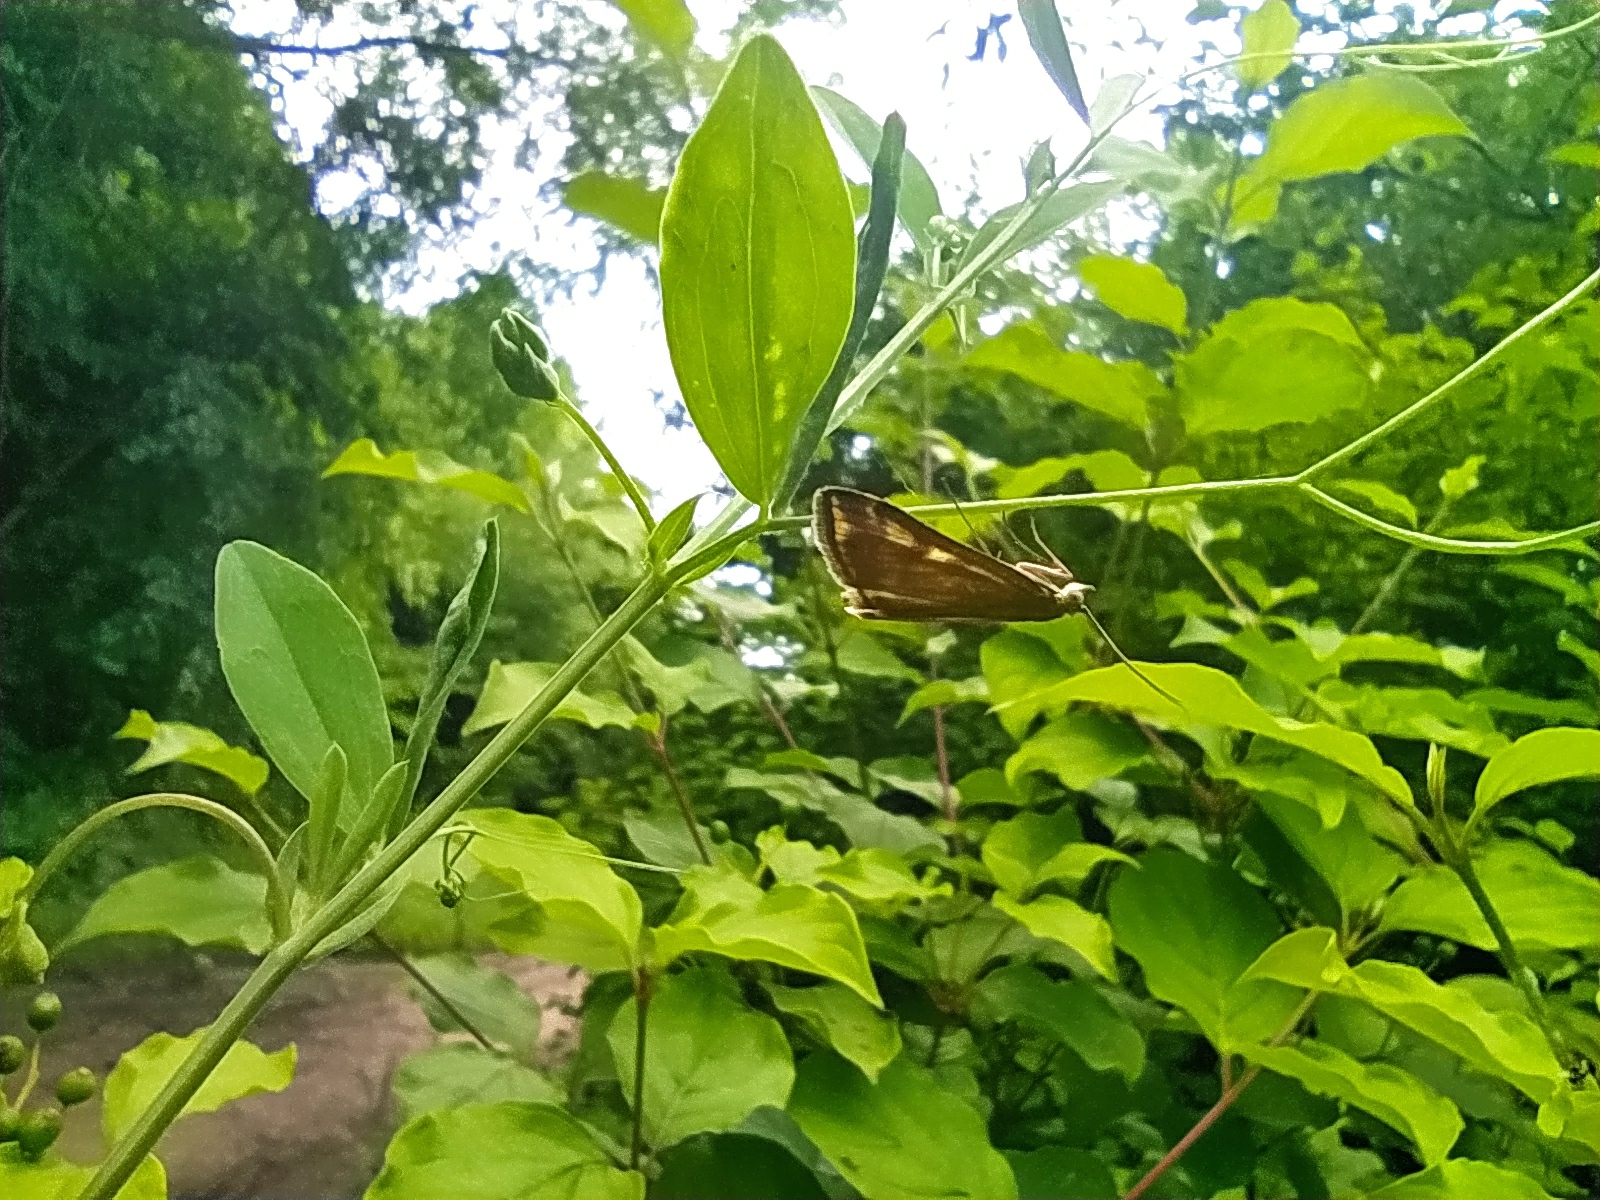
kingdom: Animalia
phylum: Arthropoda
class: Insecta
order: Lepidoptera
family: Crambidae
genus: Loxostege
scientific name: Loxostege sticticalis
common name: Crambid moth
